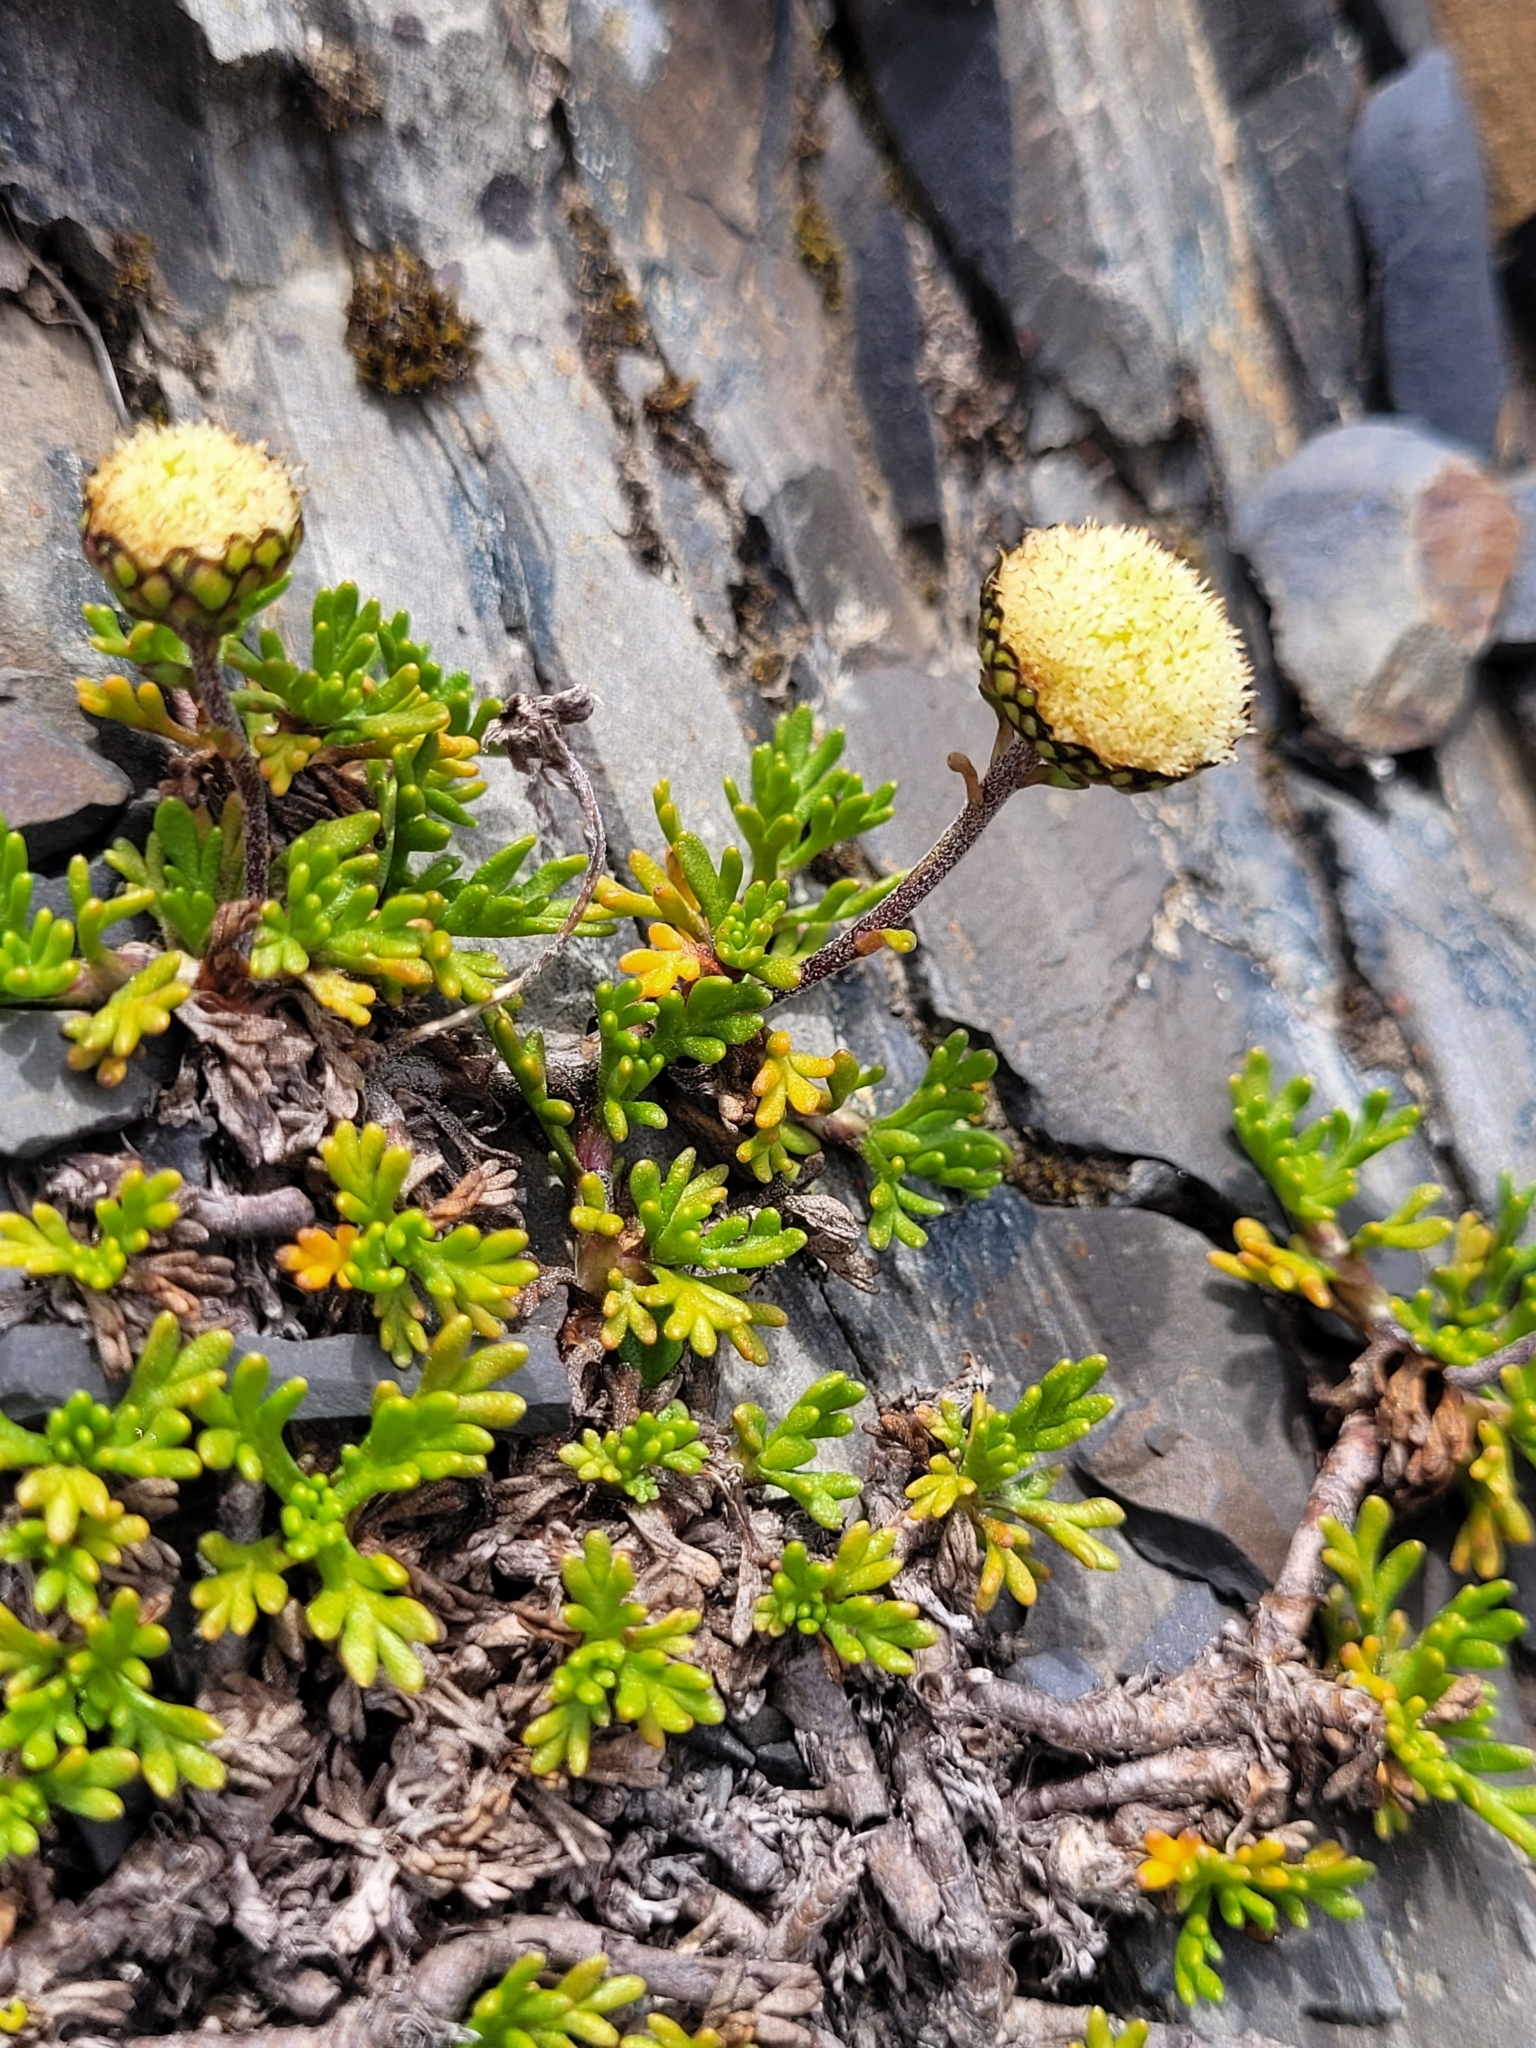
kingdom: Plantae
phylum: Tracheophyta
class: Magnoliopsida
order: Asterales
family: Asteraceae
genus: Leptinella
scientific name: Leptinella pyrethrifolia
